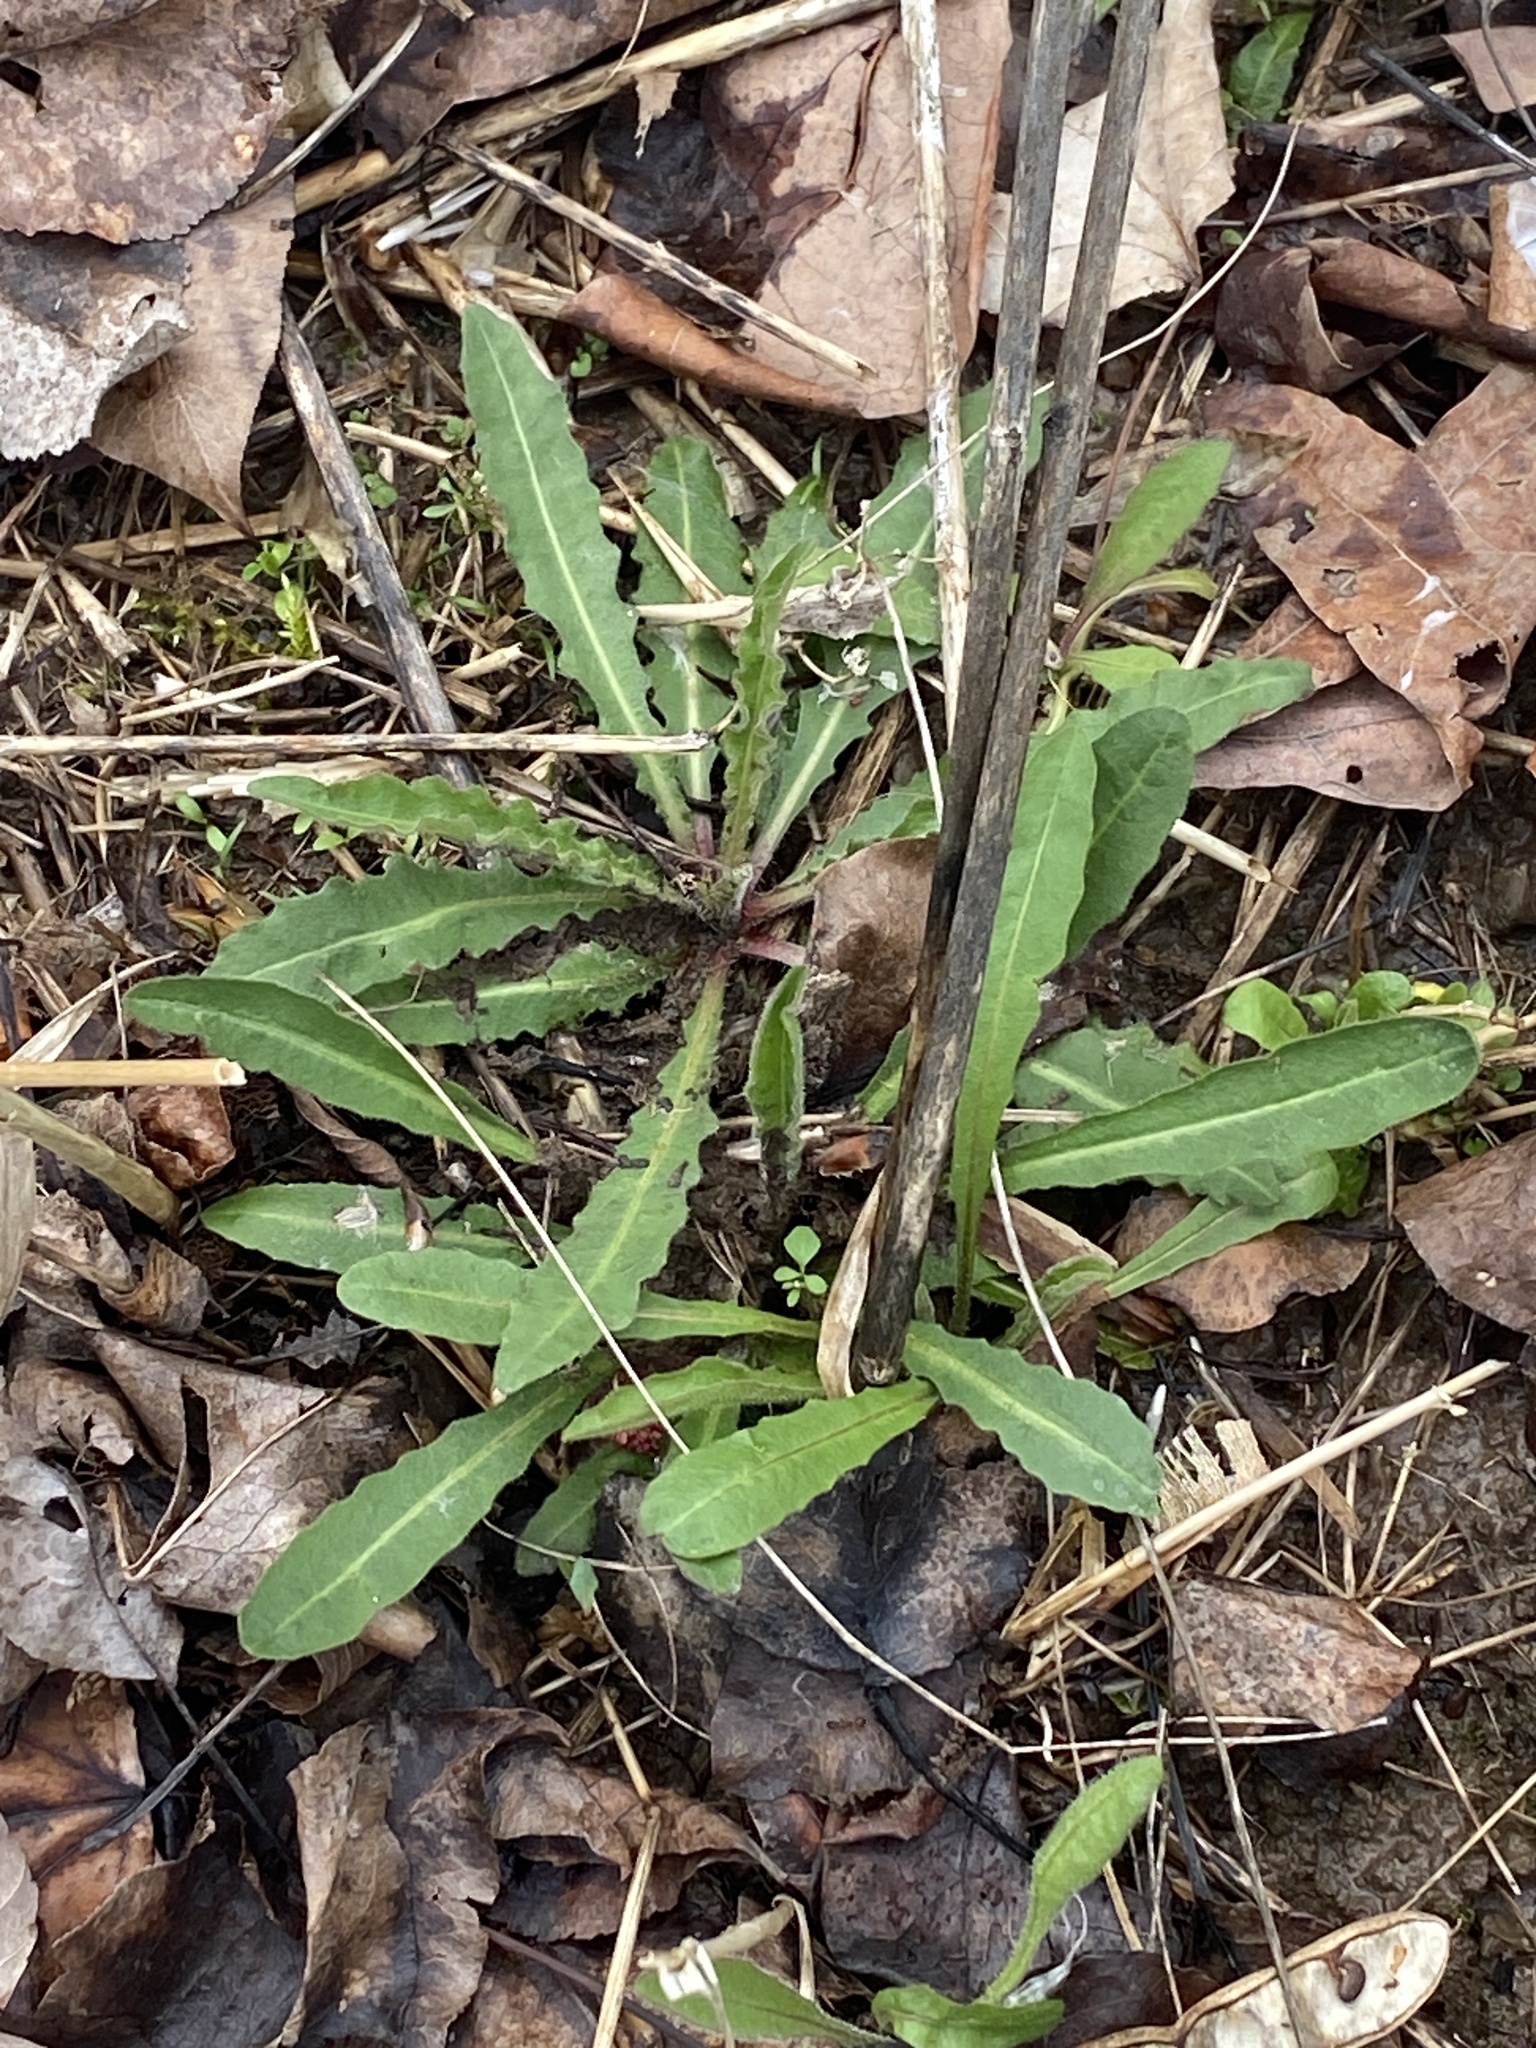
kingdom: Plantae
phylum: Tracheophyta
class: Magnoliopsida
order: Asterales
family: Asteraceae
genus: Picris
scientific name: Picris hieracioides
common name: Hawkweed oxtongue
